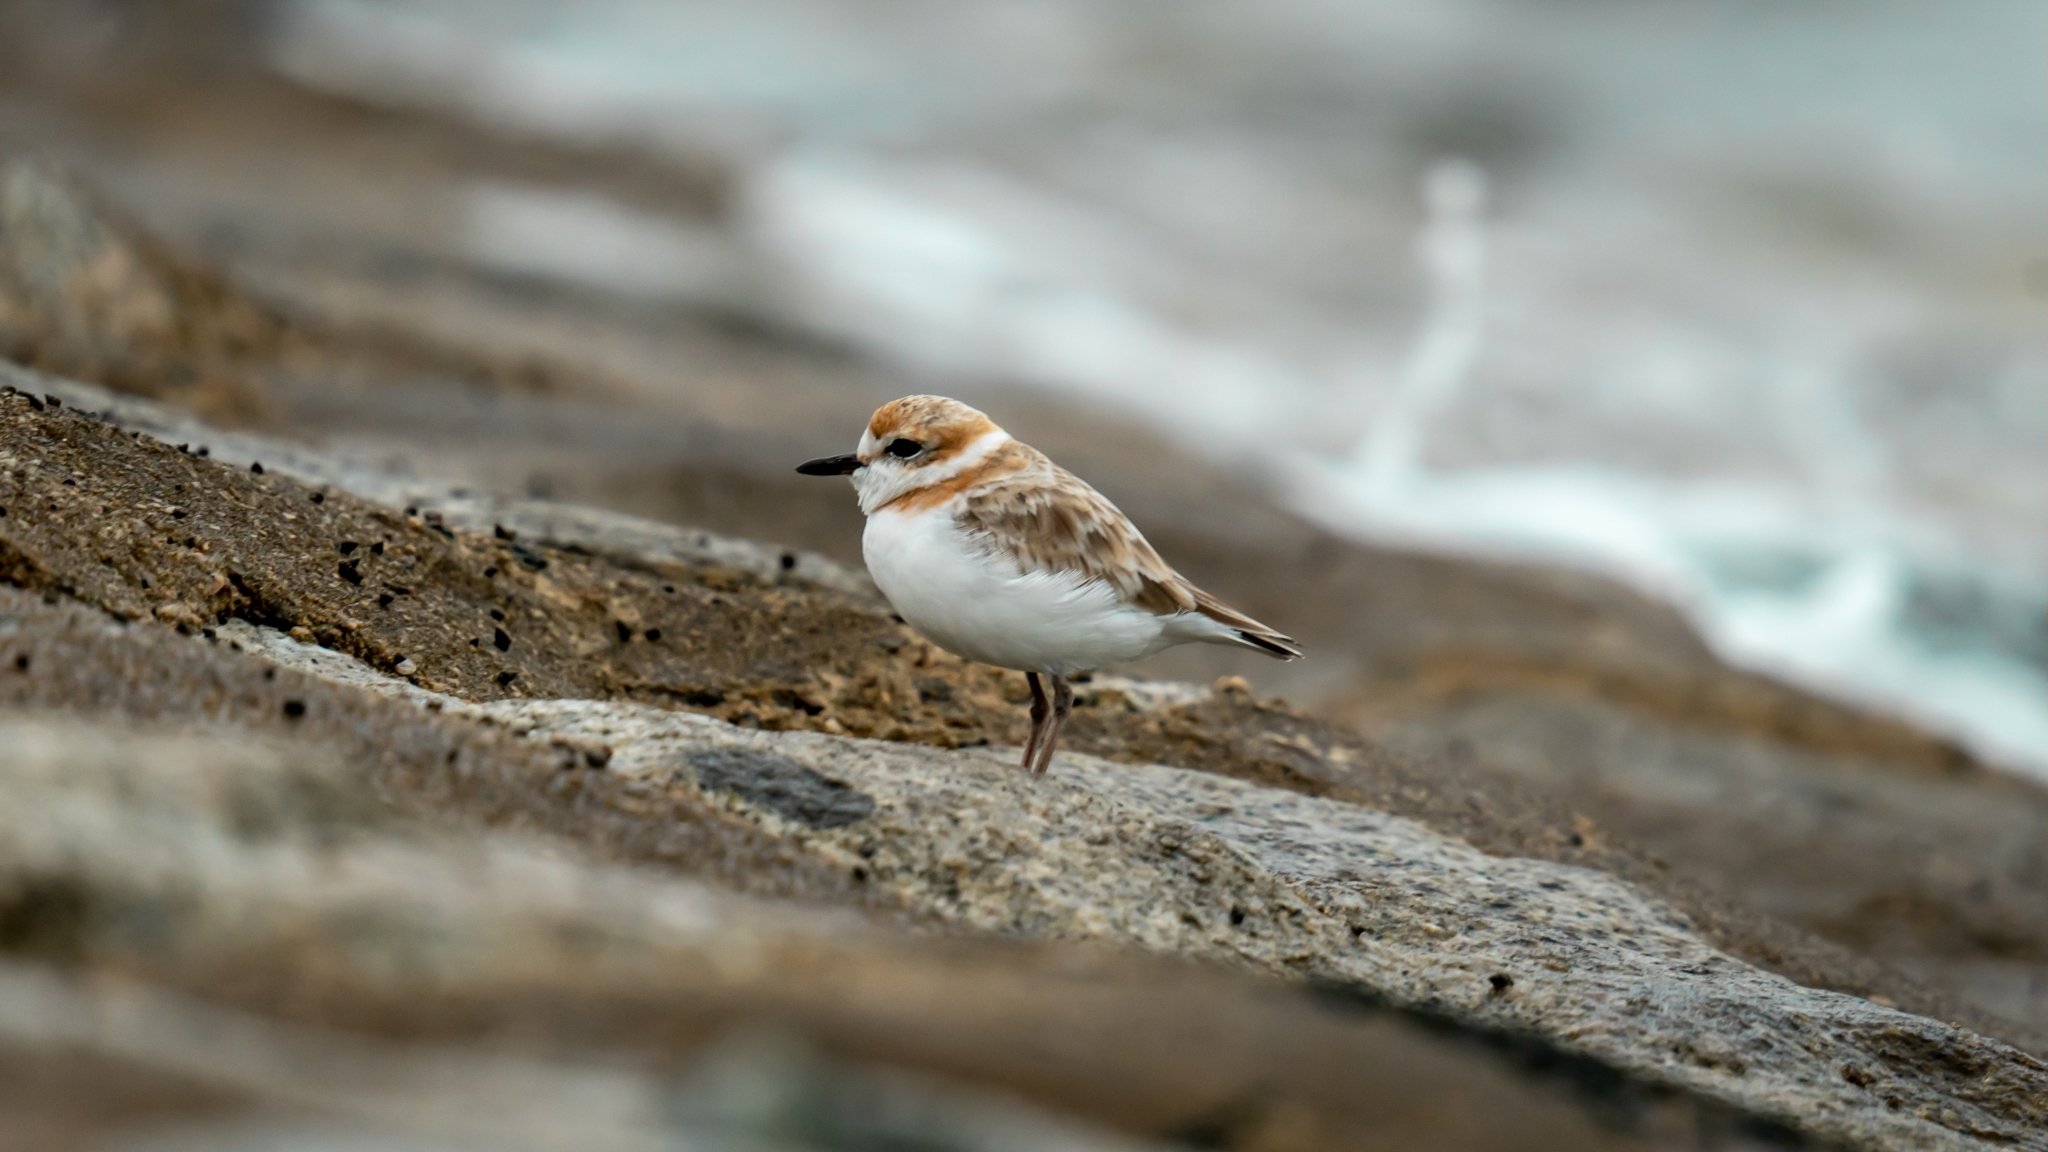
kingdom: Animalia
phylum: Chordata
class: Aves
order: Charadriiformes
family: Charadriidae
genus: Anarhynchus
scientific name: Anarhynchus
